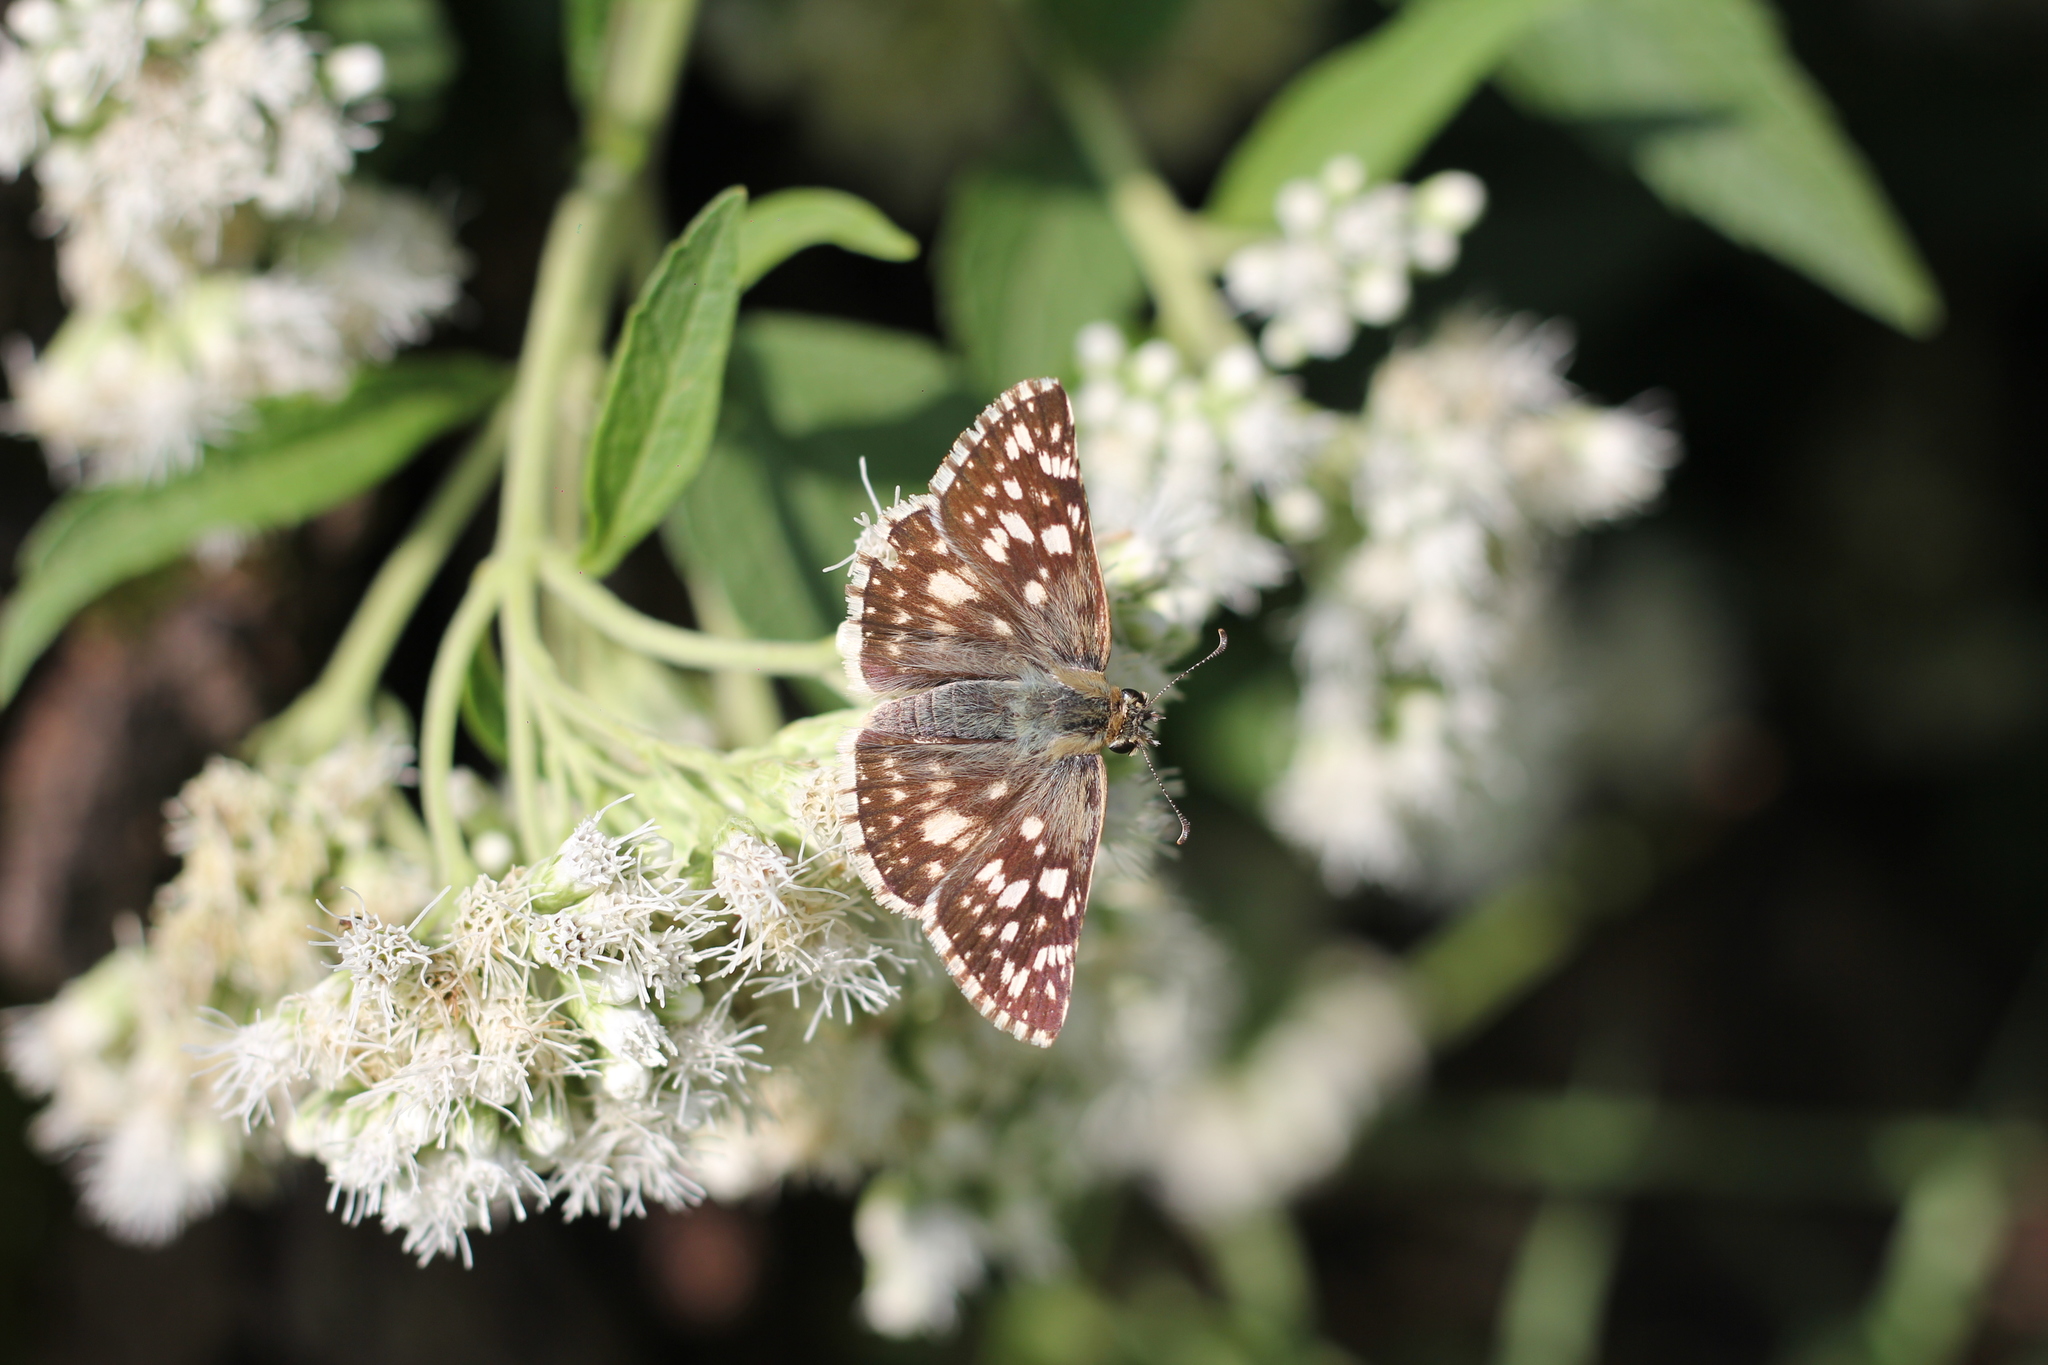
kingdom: Animalia
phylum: Arthropoda
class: Insecta
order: Lepidoptera
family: Hesperiidae
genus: Heliopetes
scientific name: Heliopetes americanus
